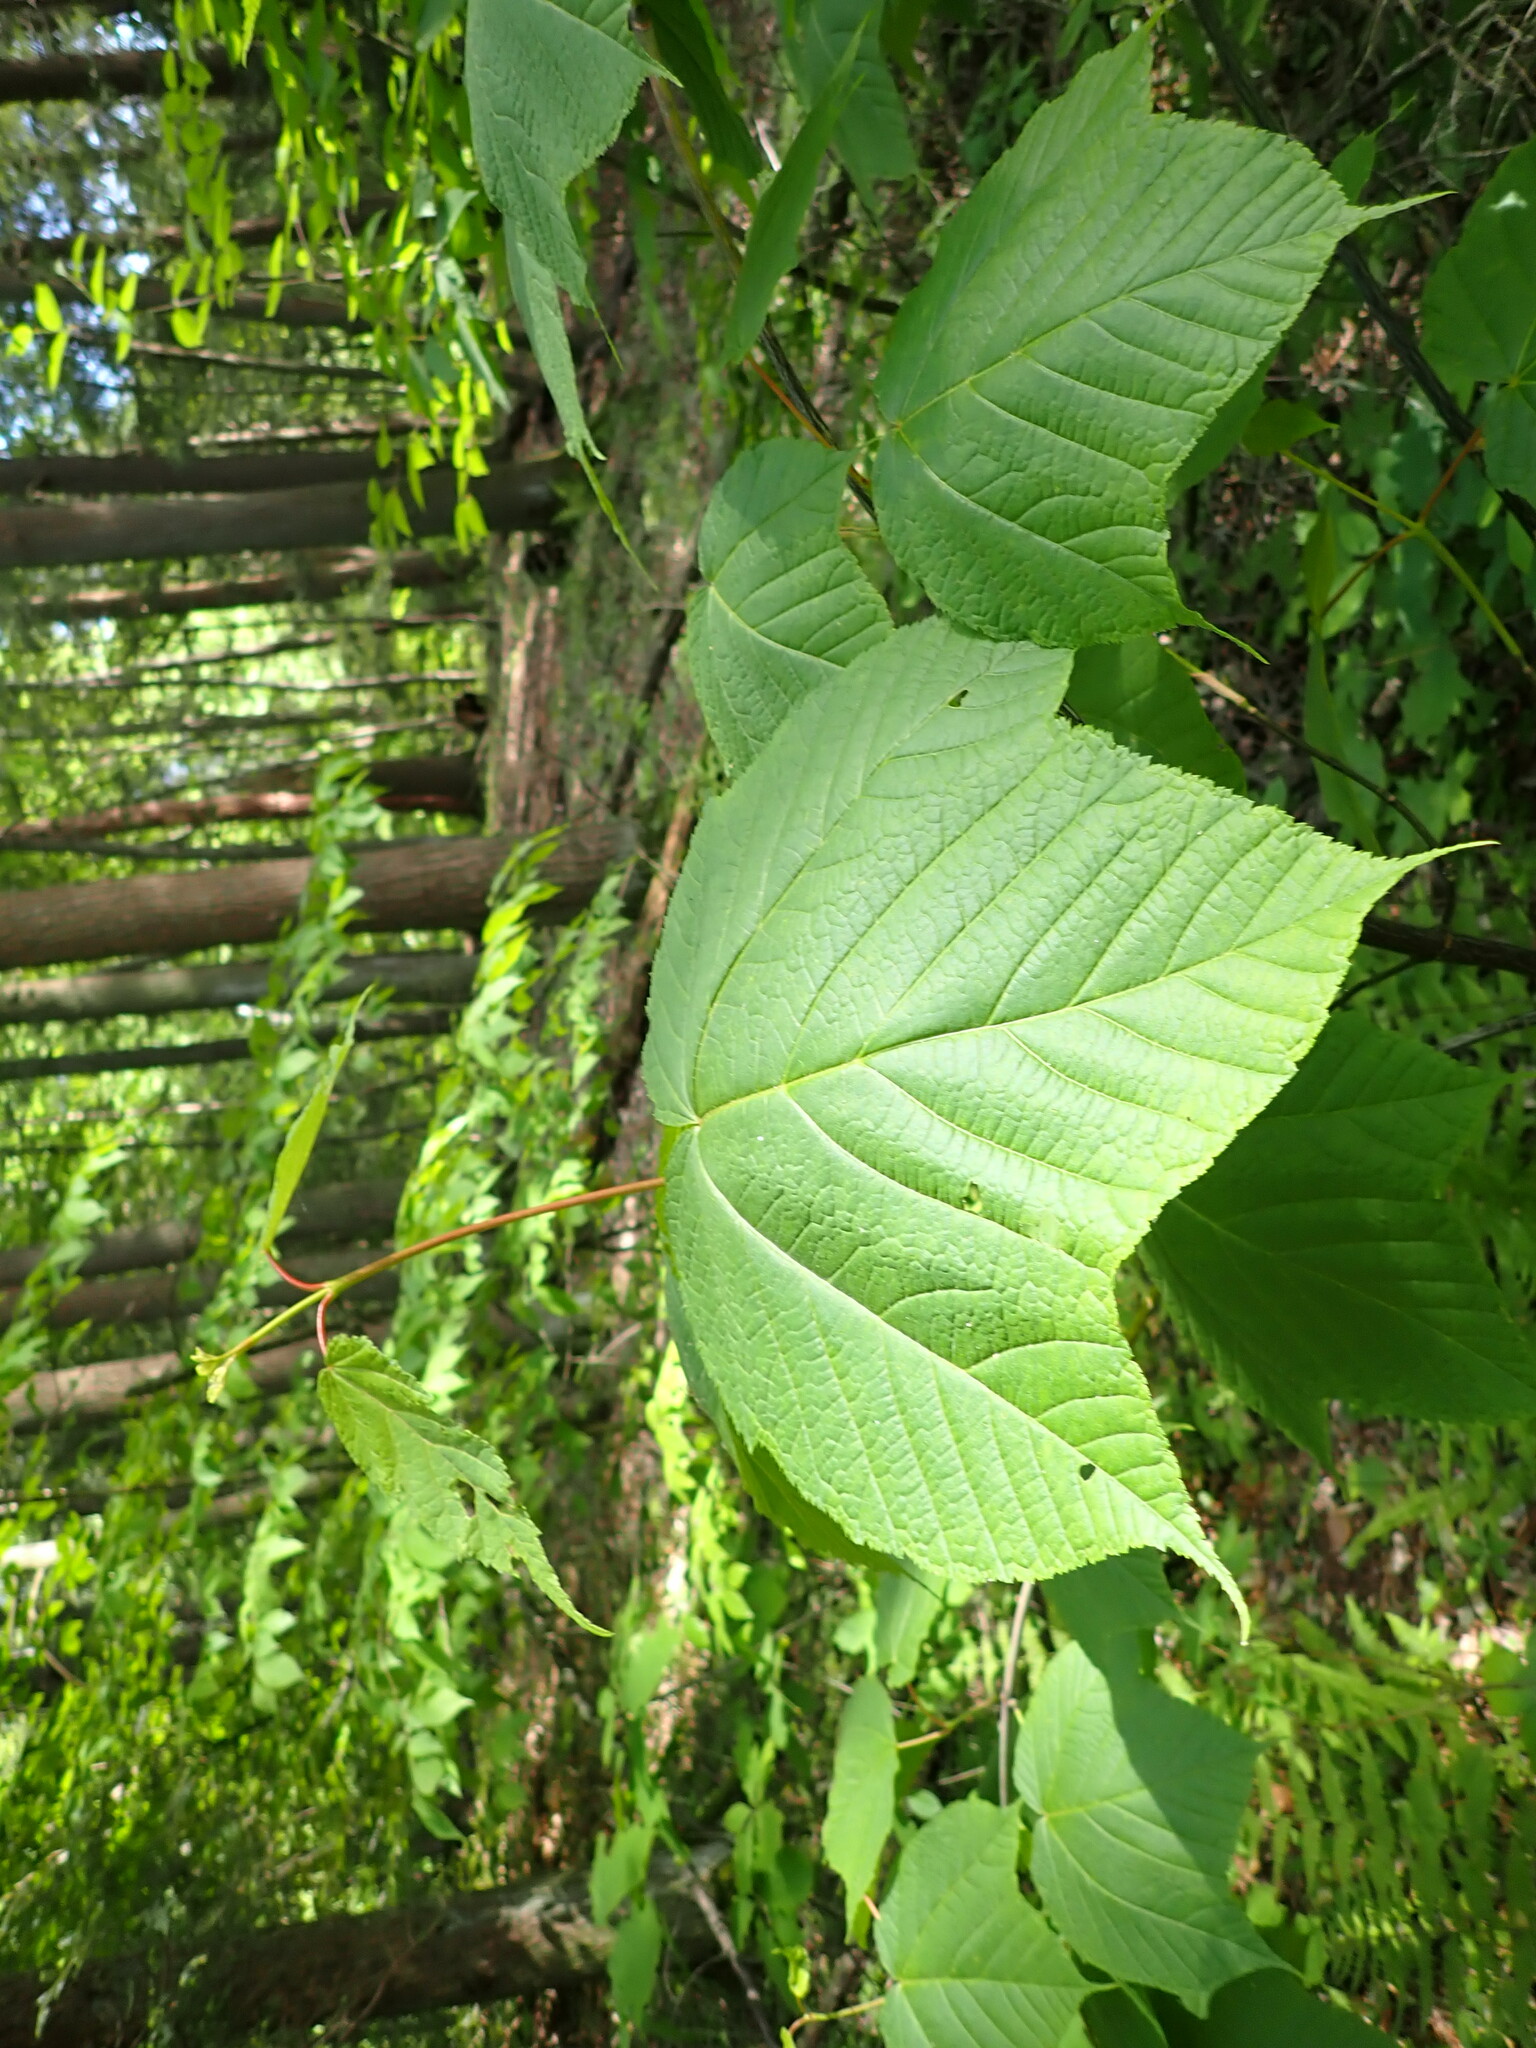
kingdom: Plantae
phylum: Tracheophyta
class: Magnoliopsida
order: Sapindales
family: Sapindaceae
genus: Acer
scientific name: Acer pensylvanicum
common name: Moosewood
